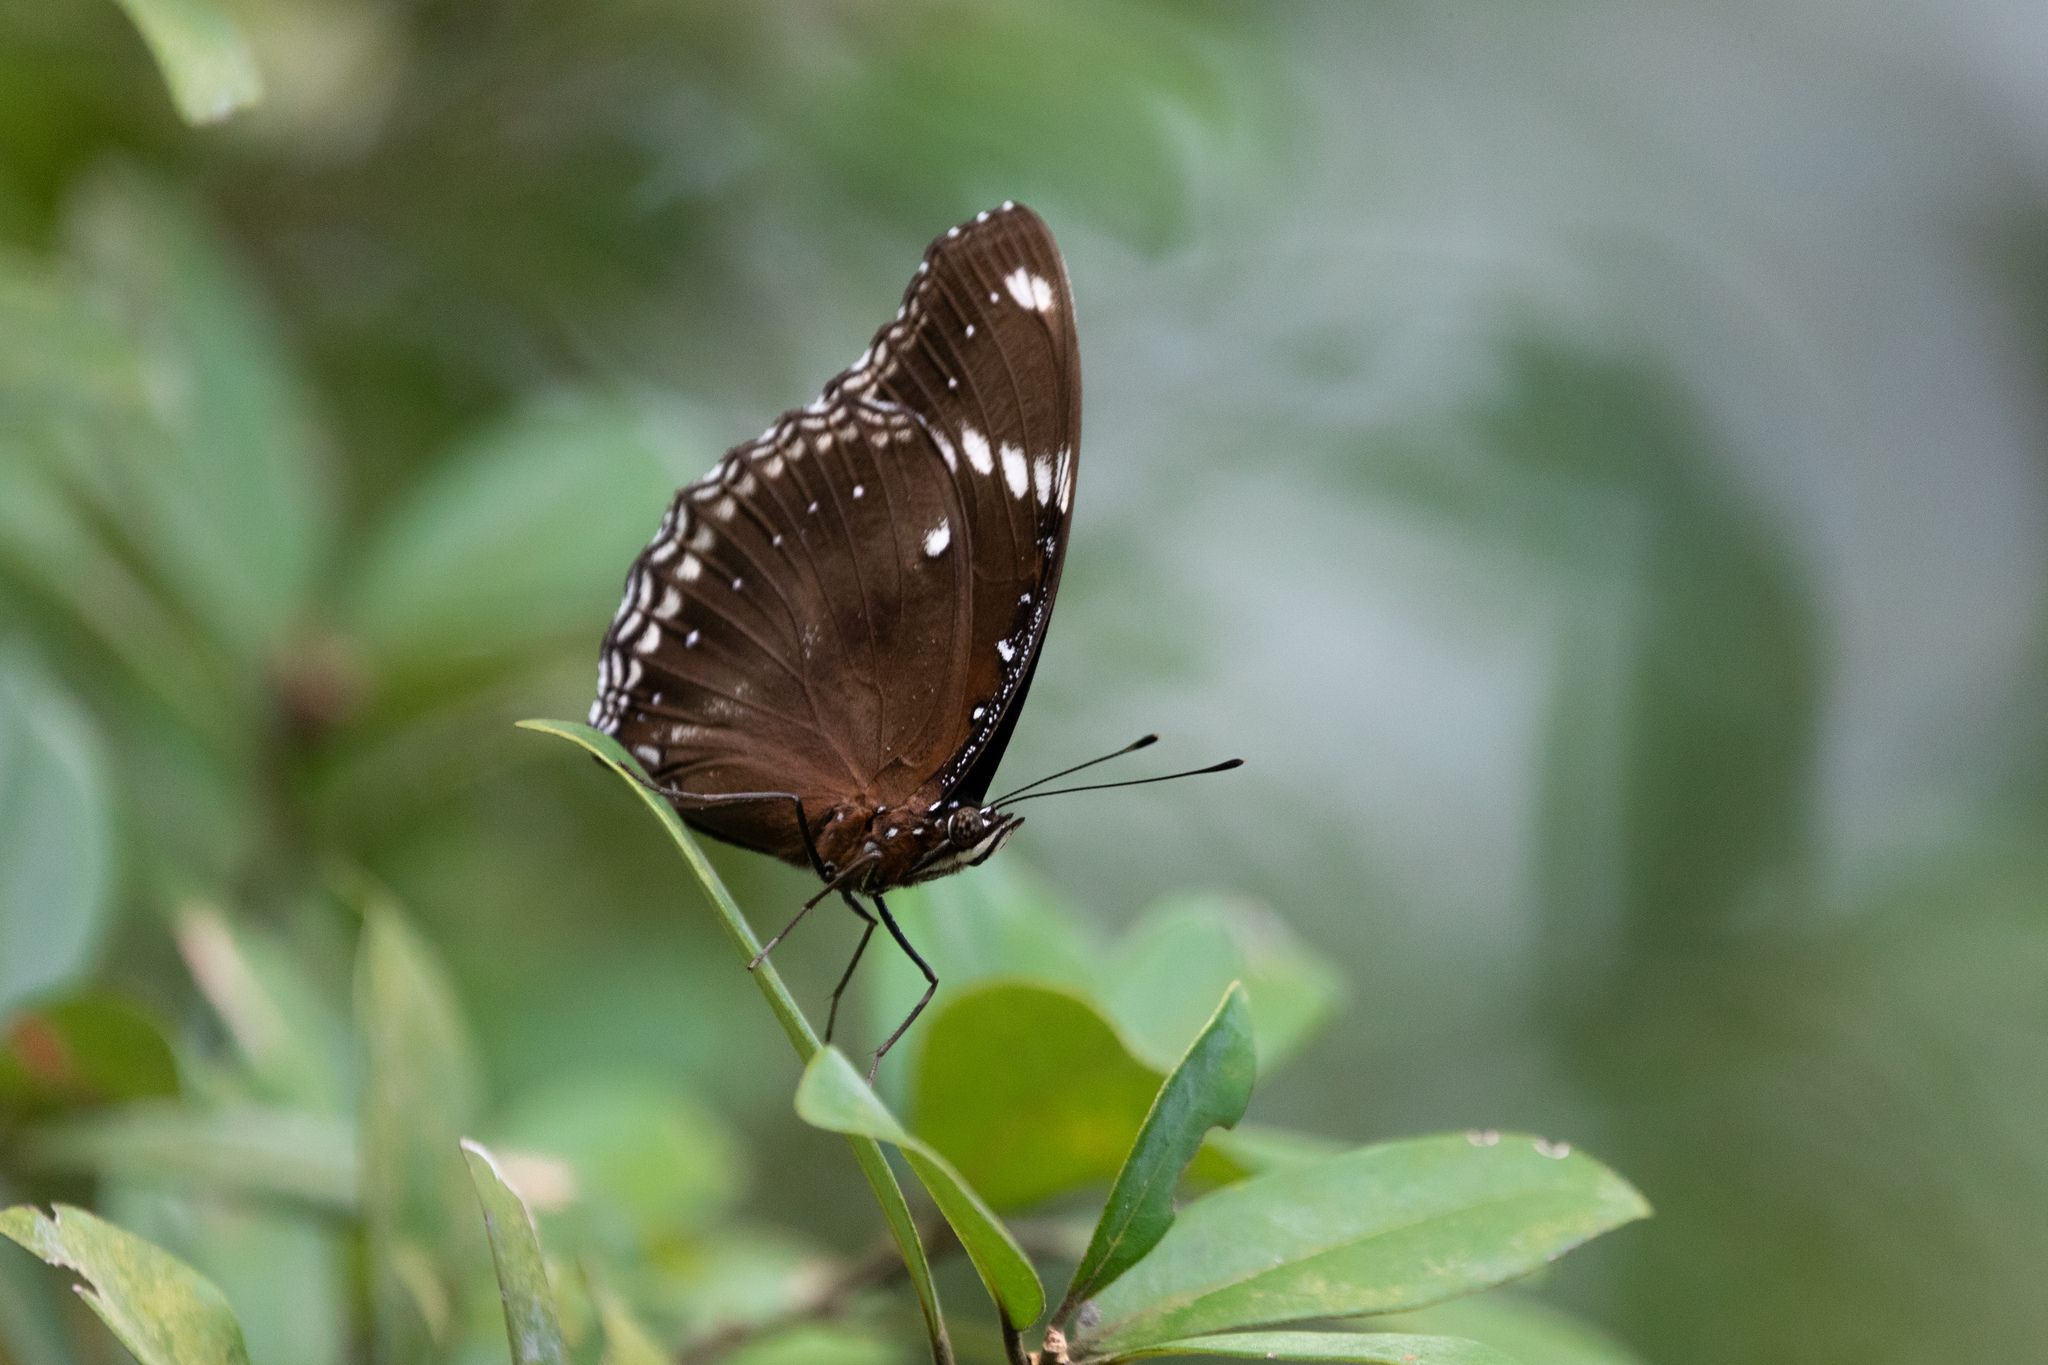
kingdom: Animalia
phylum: Arthropoda
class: Insecta
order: Lepidoptera
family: Nymphalidae
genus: Hypolimnas
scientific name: Hypolimnas bolina
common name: Great eggfly
